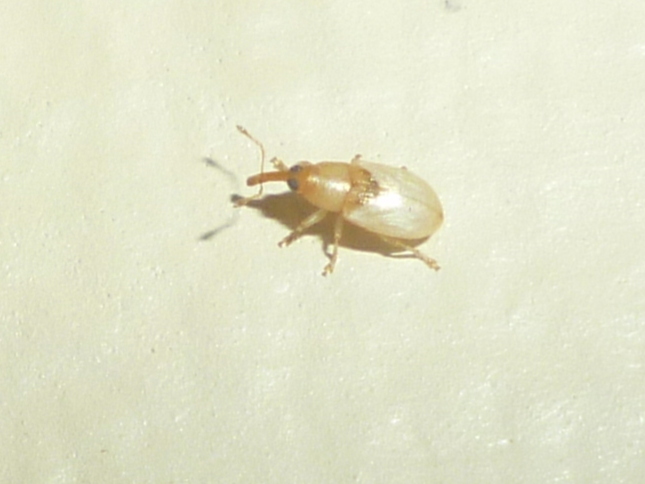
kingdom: Animalia
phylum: Arthropoda
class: Insecta
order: Coleoptera
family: Curculionidae
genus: Notolomus
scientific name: Notolomus basalis
